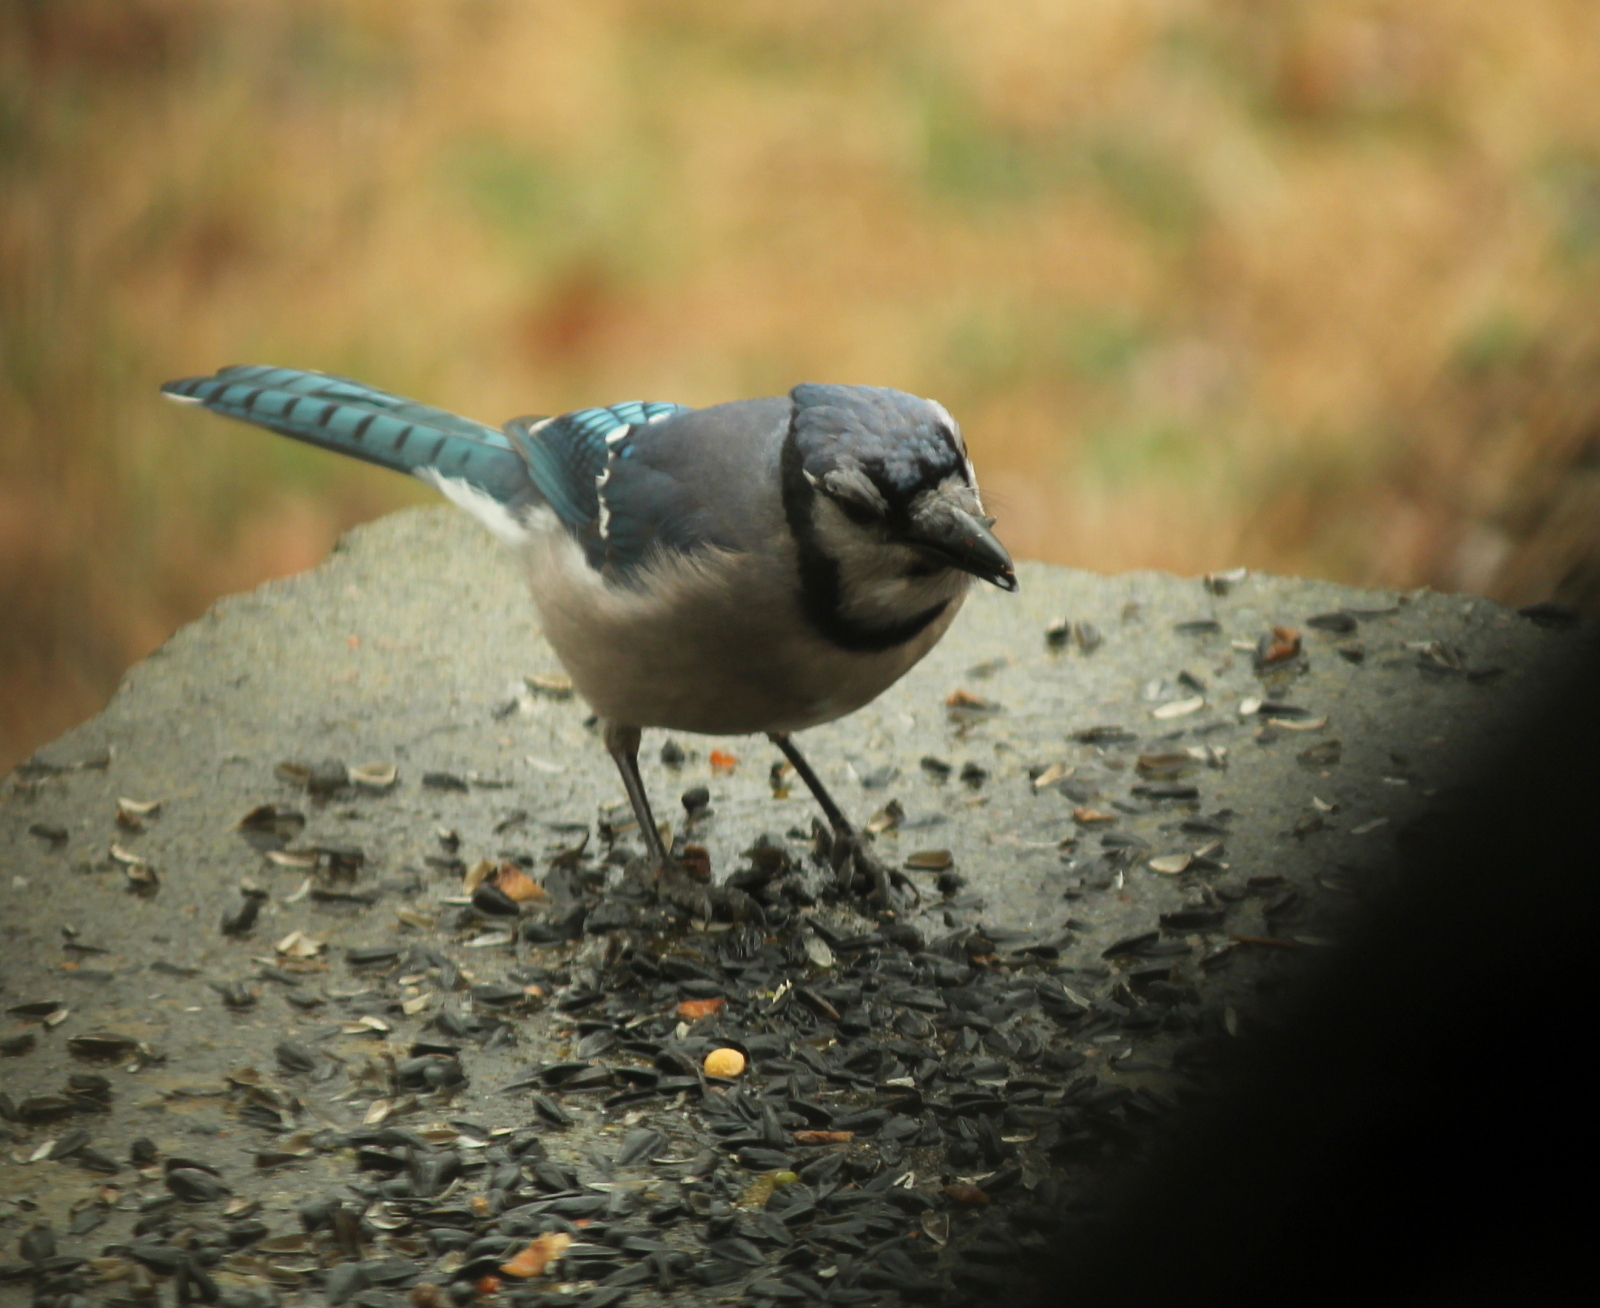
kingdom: Animalia
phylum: Chordata
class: Aves
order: Passeriformes
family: Corvidae
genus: Cyanocitta
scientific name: Cyanocitta cristata
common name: Blue jay
